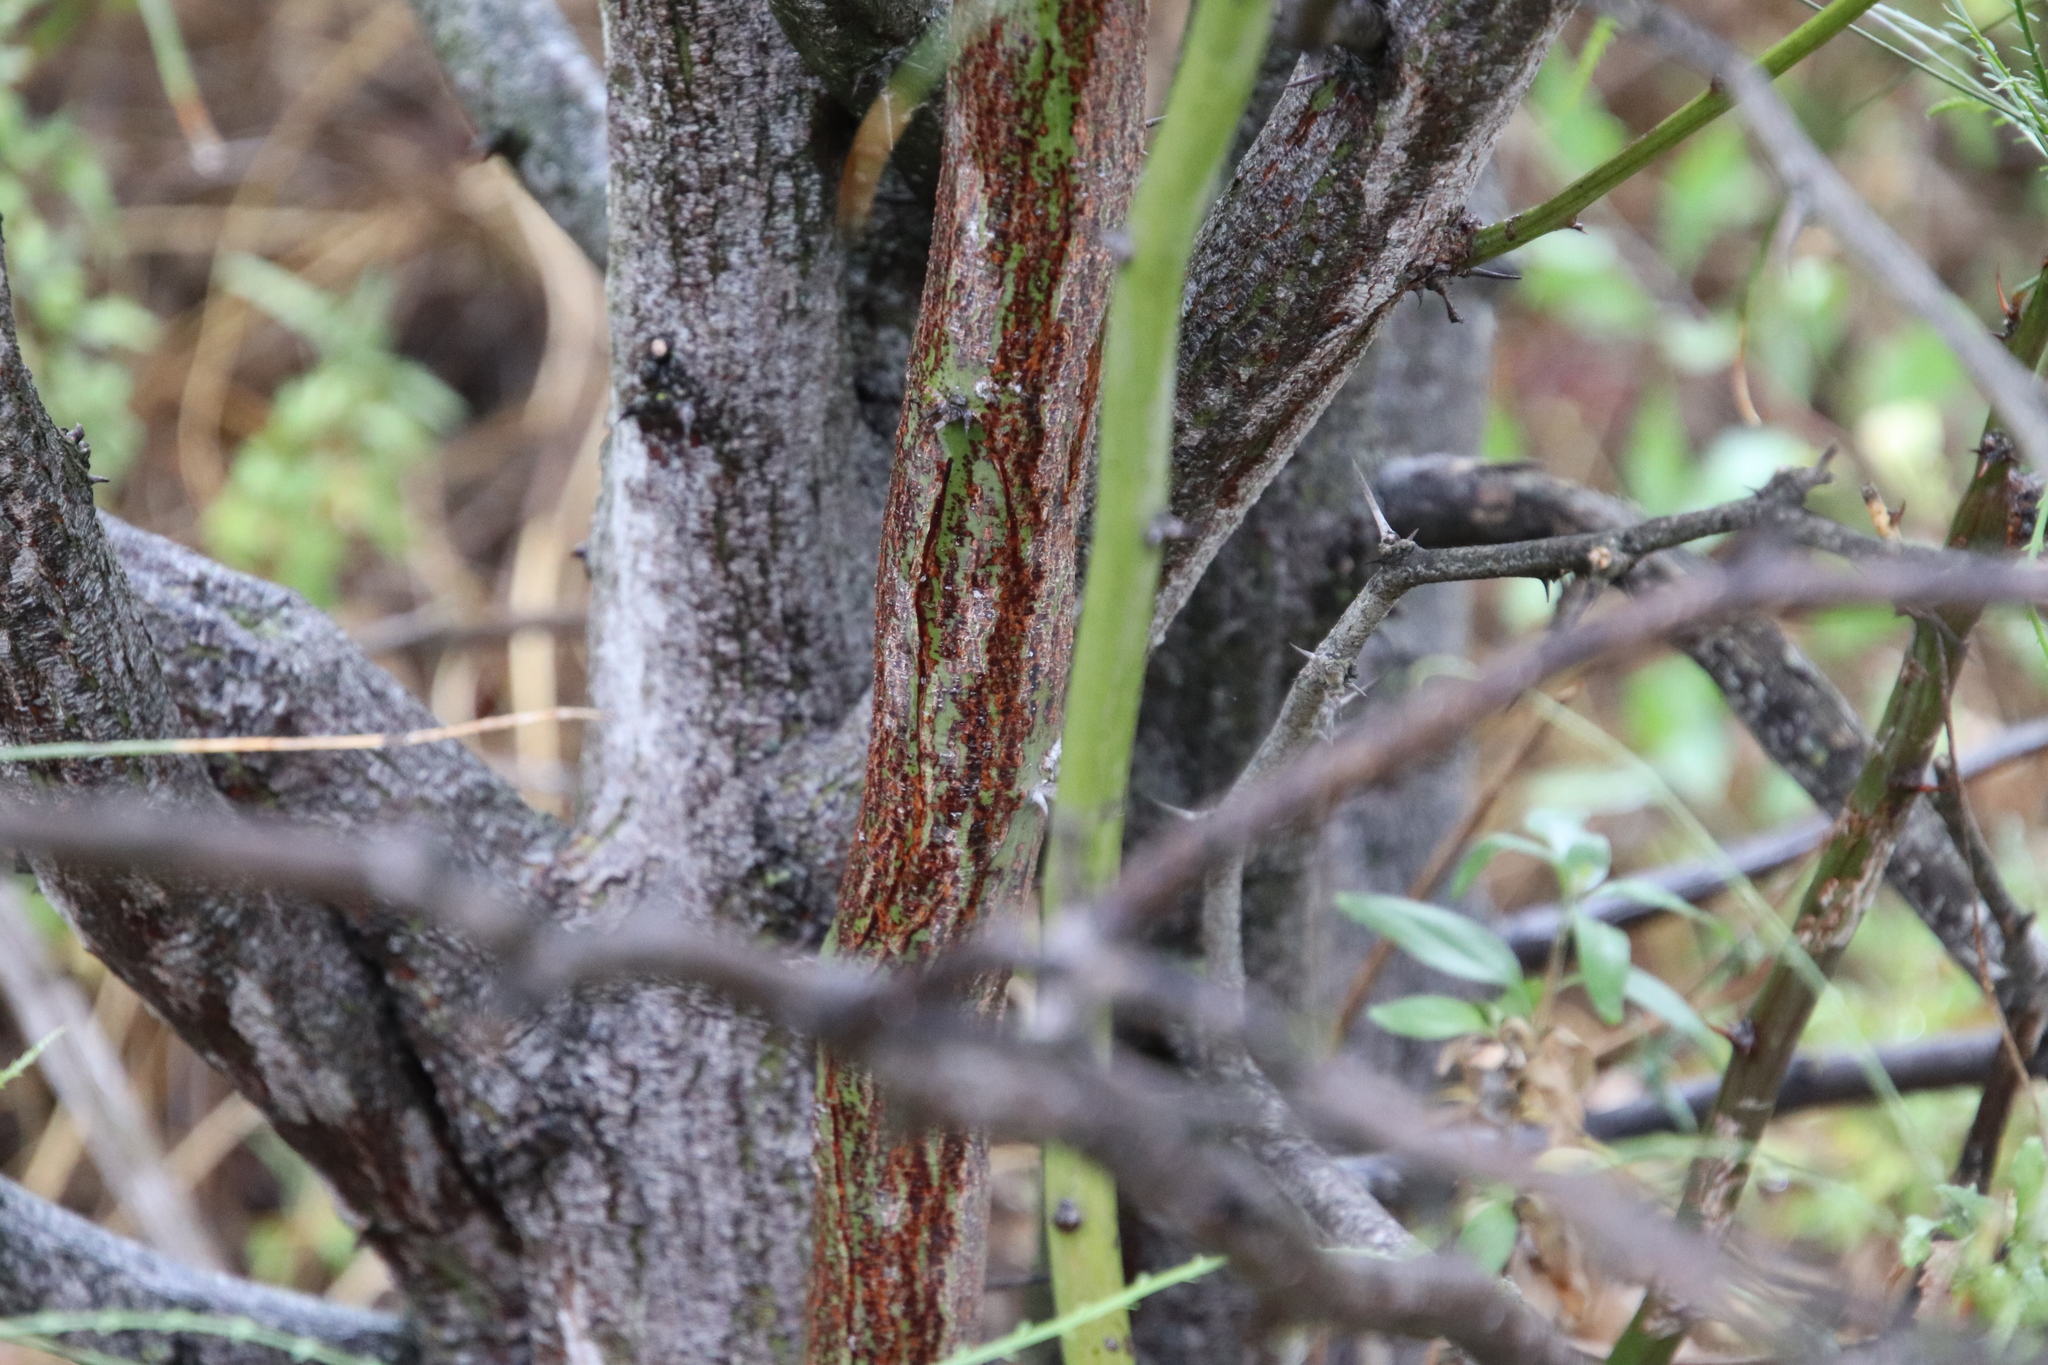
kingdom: Plantae
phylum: Tracheophyta
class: Magnoliopsida
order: Fabales
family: Fabaceae
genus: Parkinsonia
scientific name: Parkinsonia aculeata
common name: Jerusalem thorn
